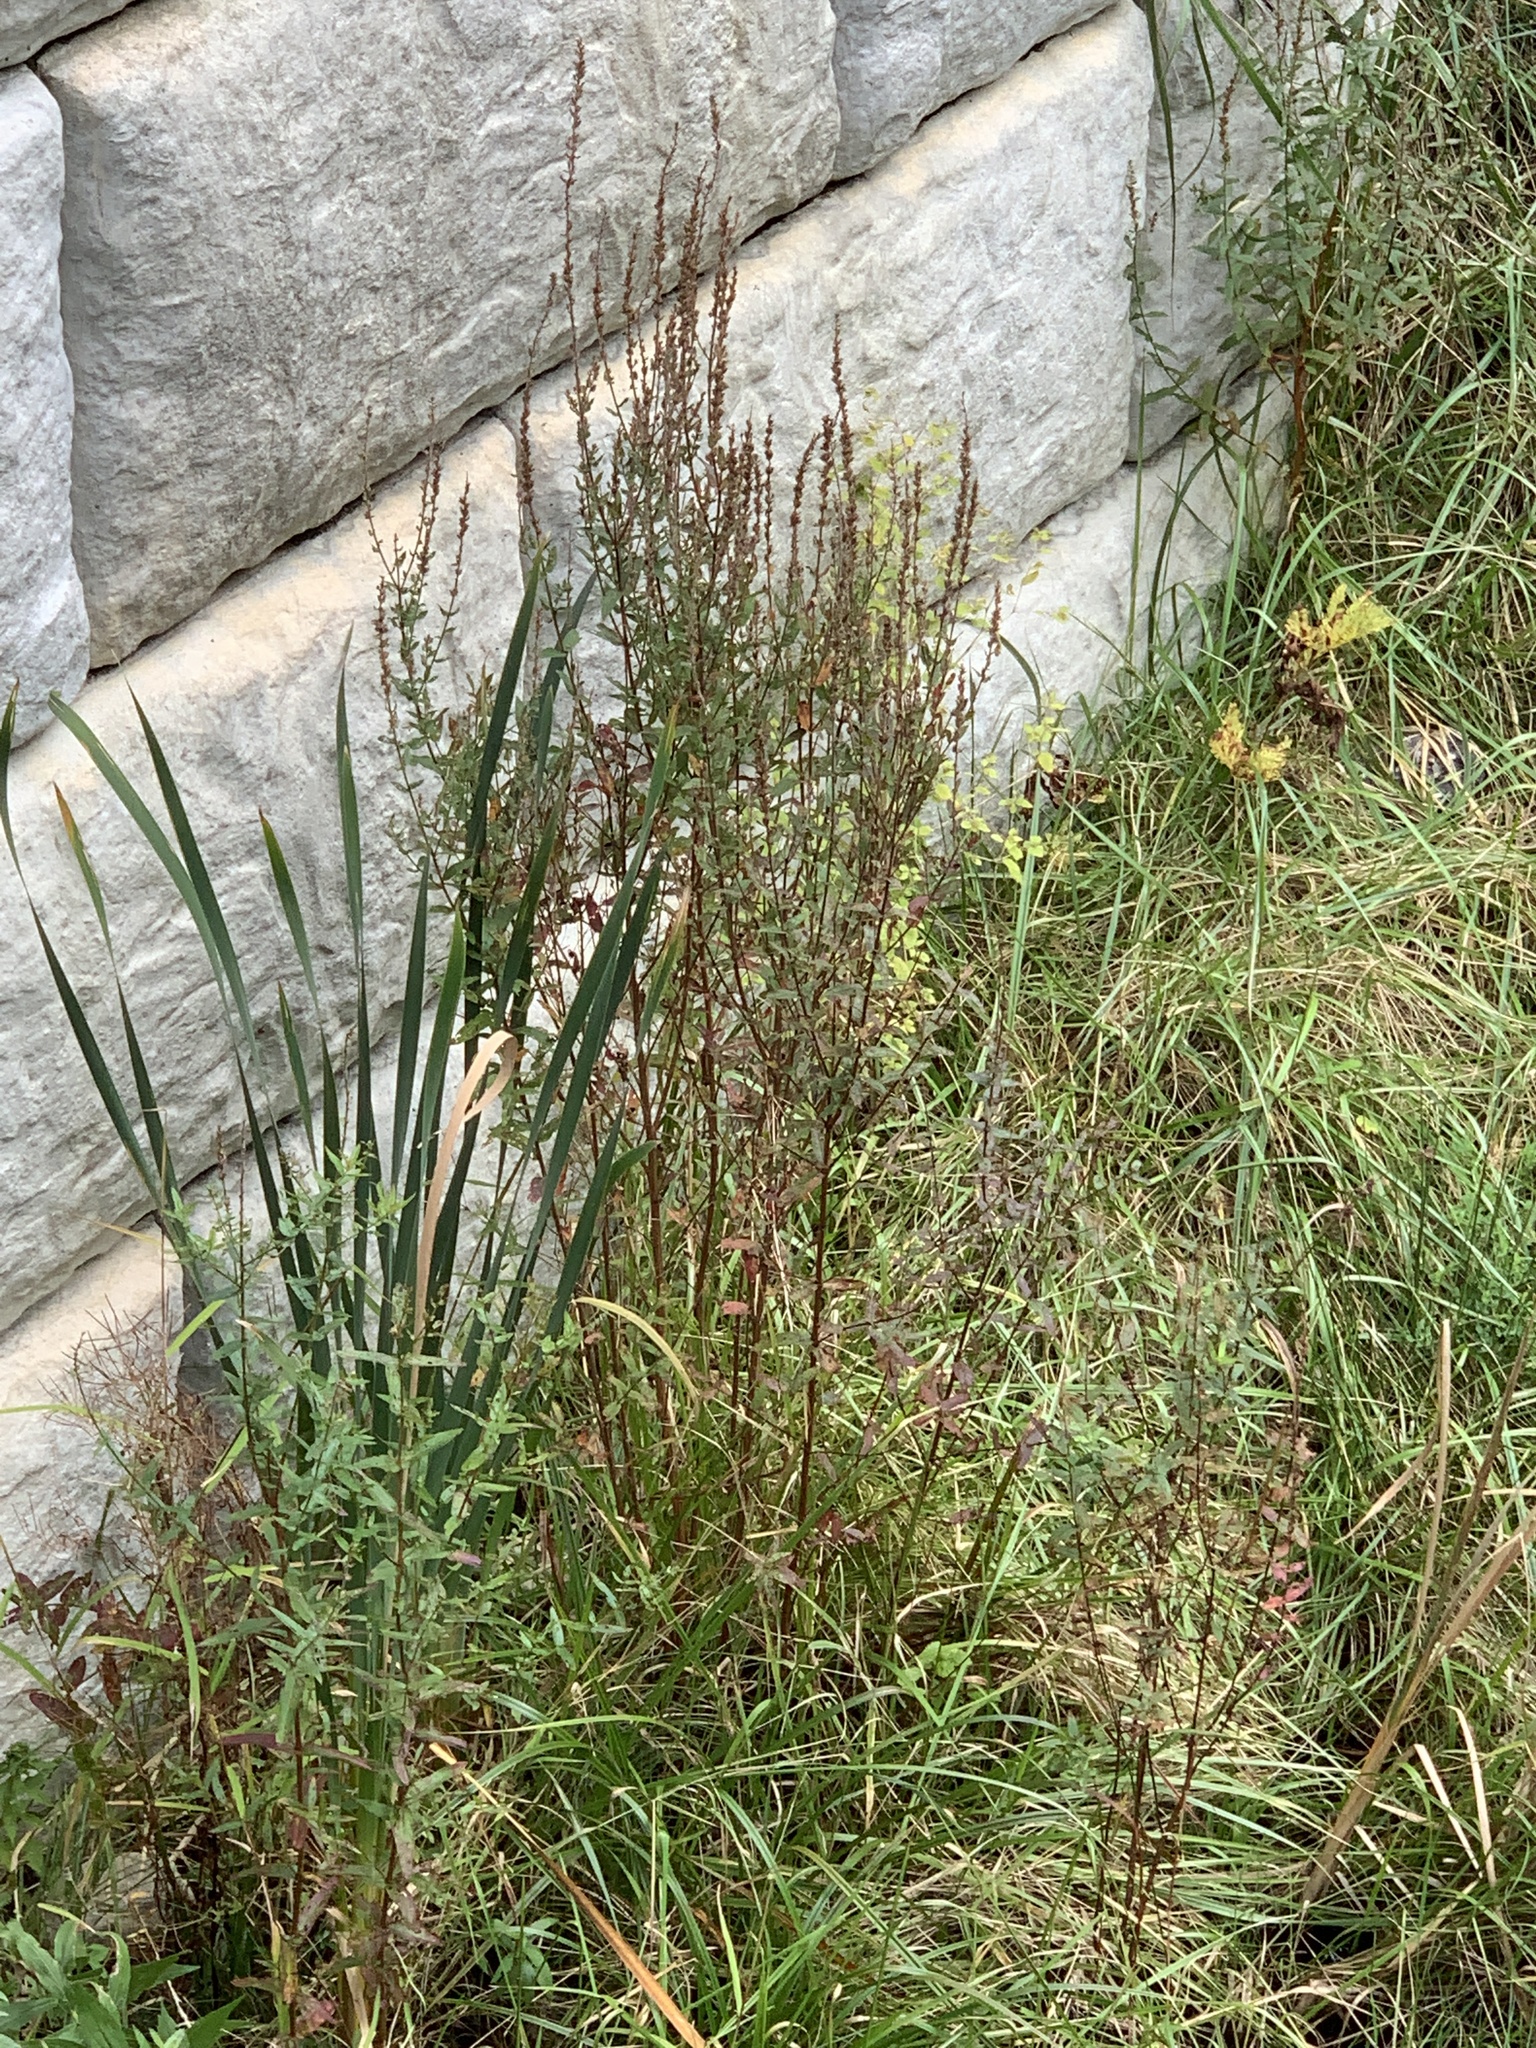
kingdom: Plantae
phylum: Tracheophyta
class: Magnoliopsida
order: Myrtales
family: Lythraceae
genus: Lythrum
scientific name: Lythrum salicaria
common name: Purple loosestrife
